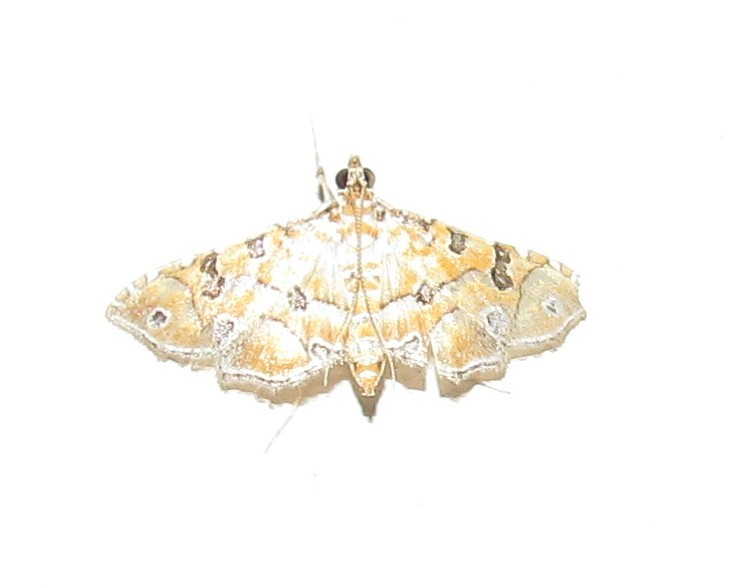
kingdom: Animalia
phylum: Arthropoda
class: Insecta
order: Lepidoptera
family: Crambidae
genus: Ommatospila
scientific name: Ommatospila narcaeusalis
